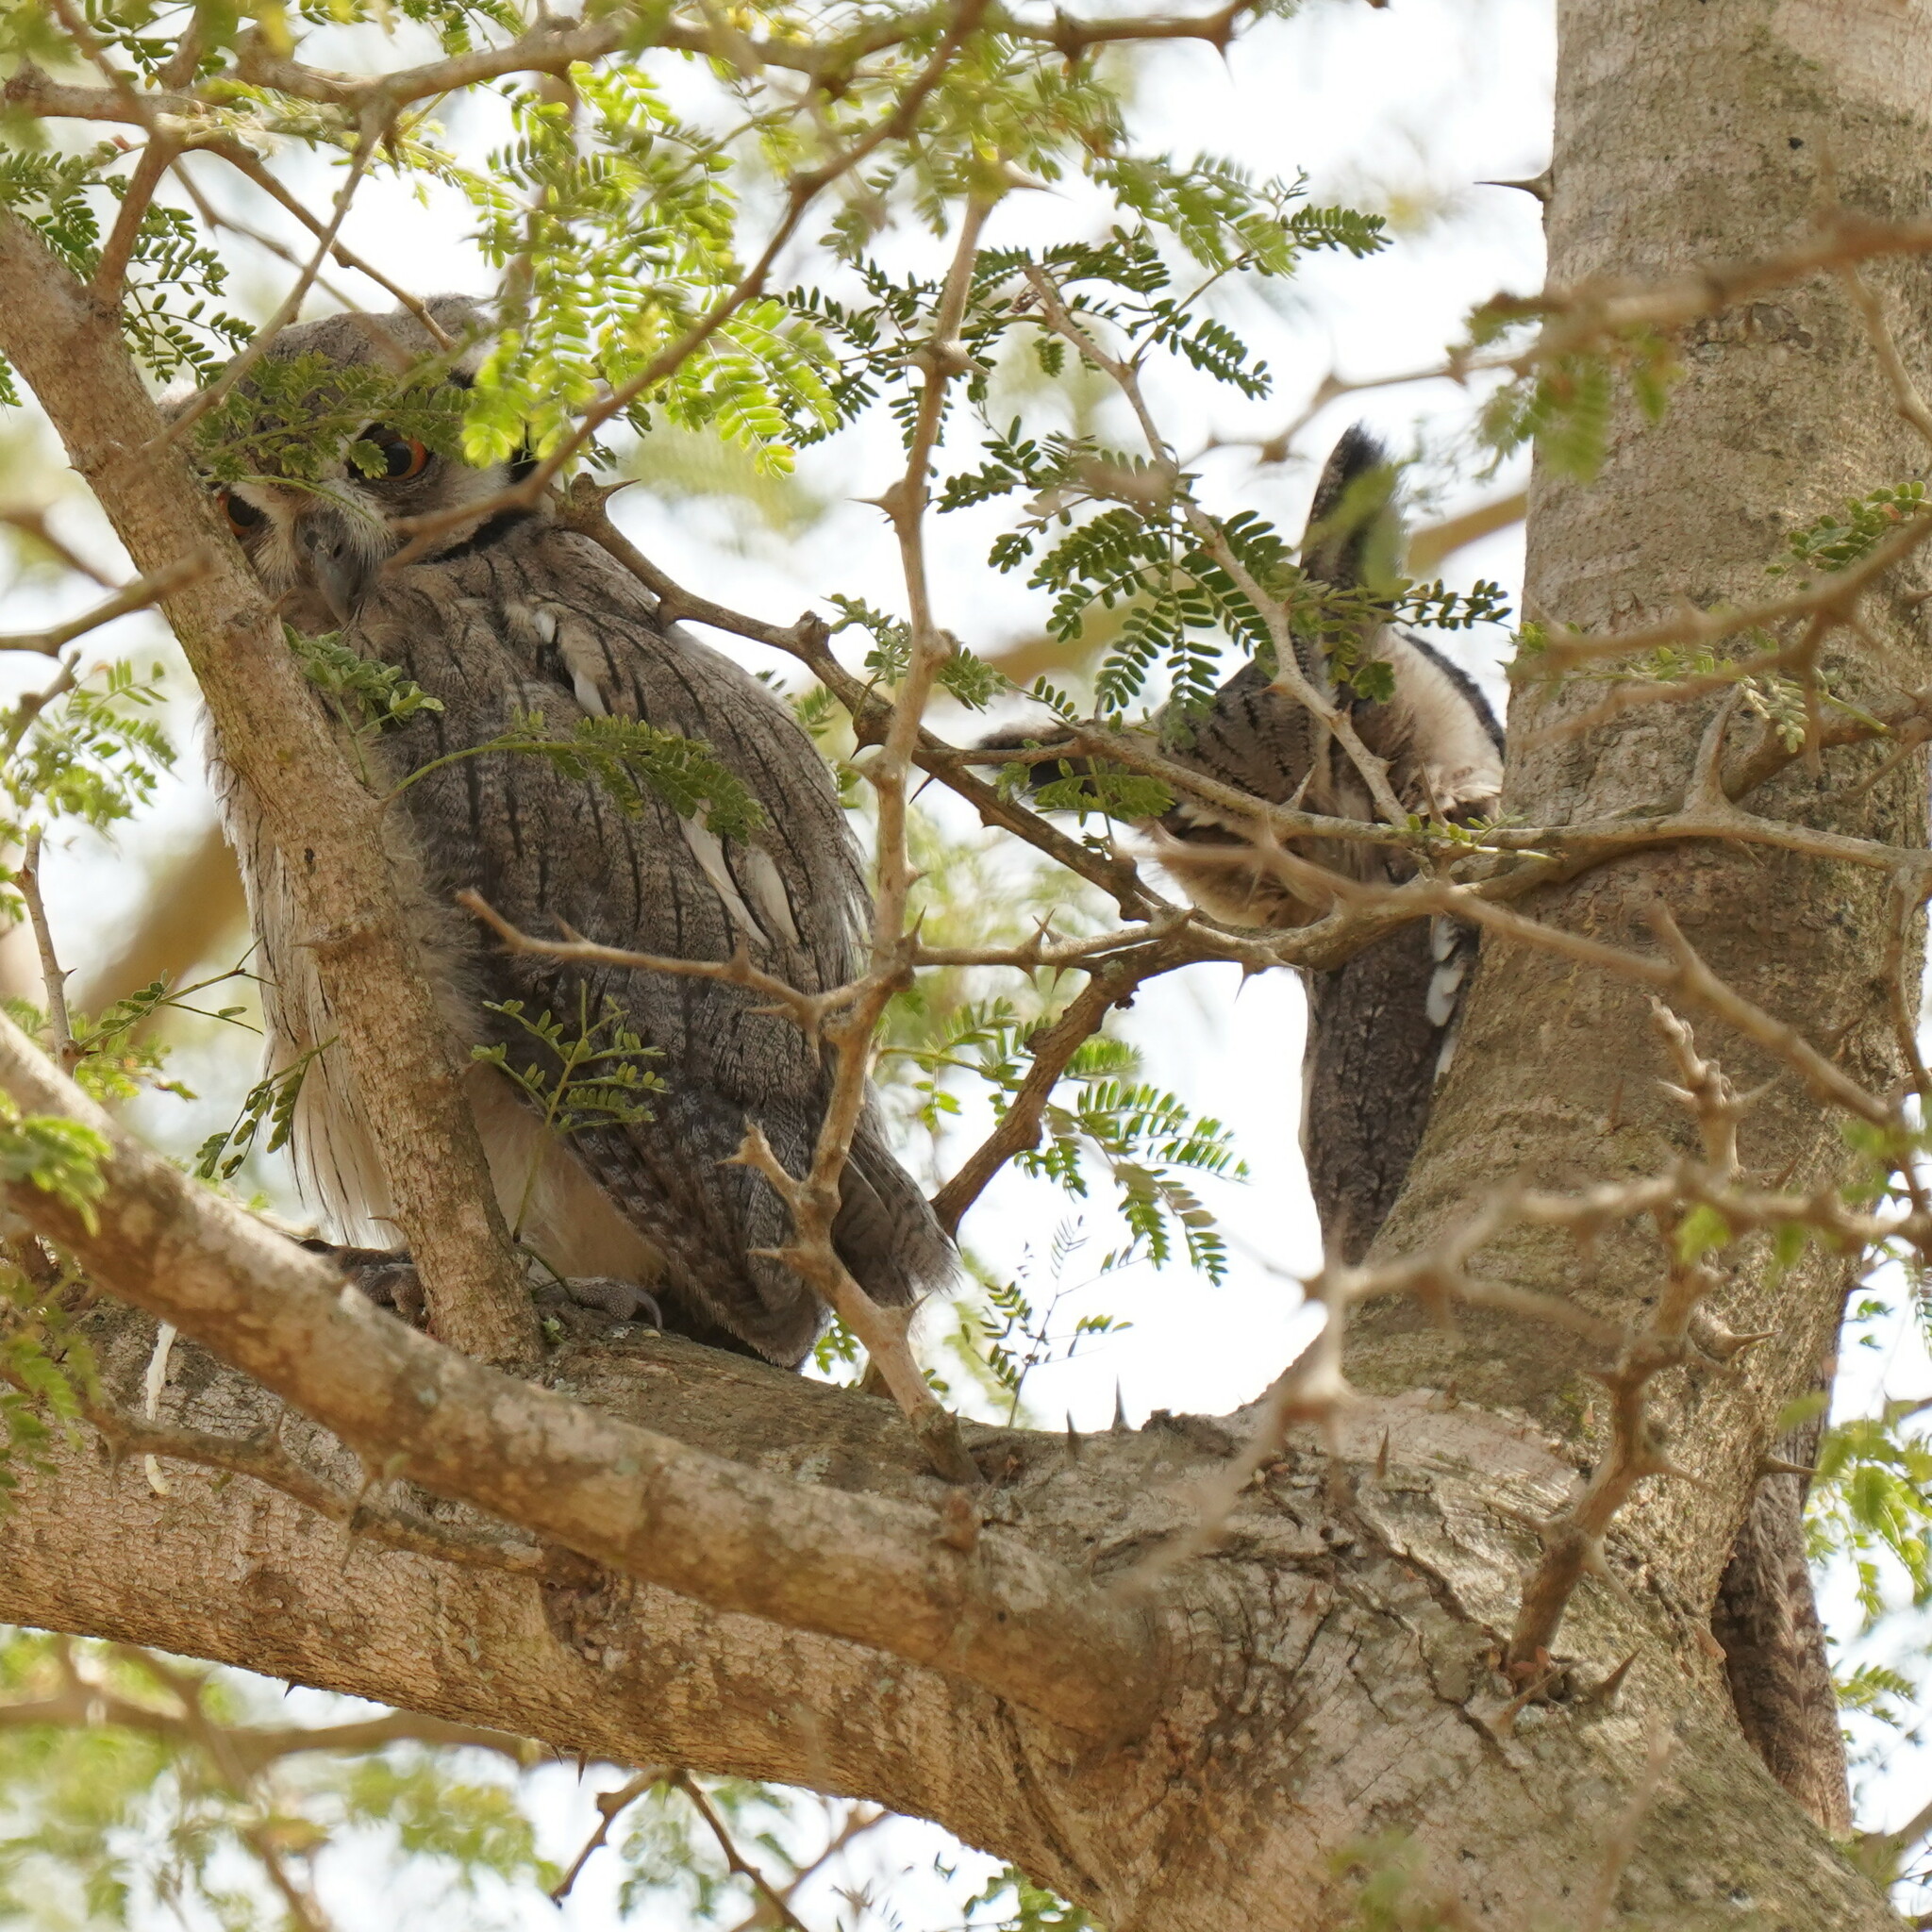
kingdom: Animalia
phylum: Chordata
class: Aves
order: Strigiformes
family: Strigidae
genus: Ptilopsis
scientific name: Ptilopsis leucotis
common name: Northern white-faced owl
